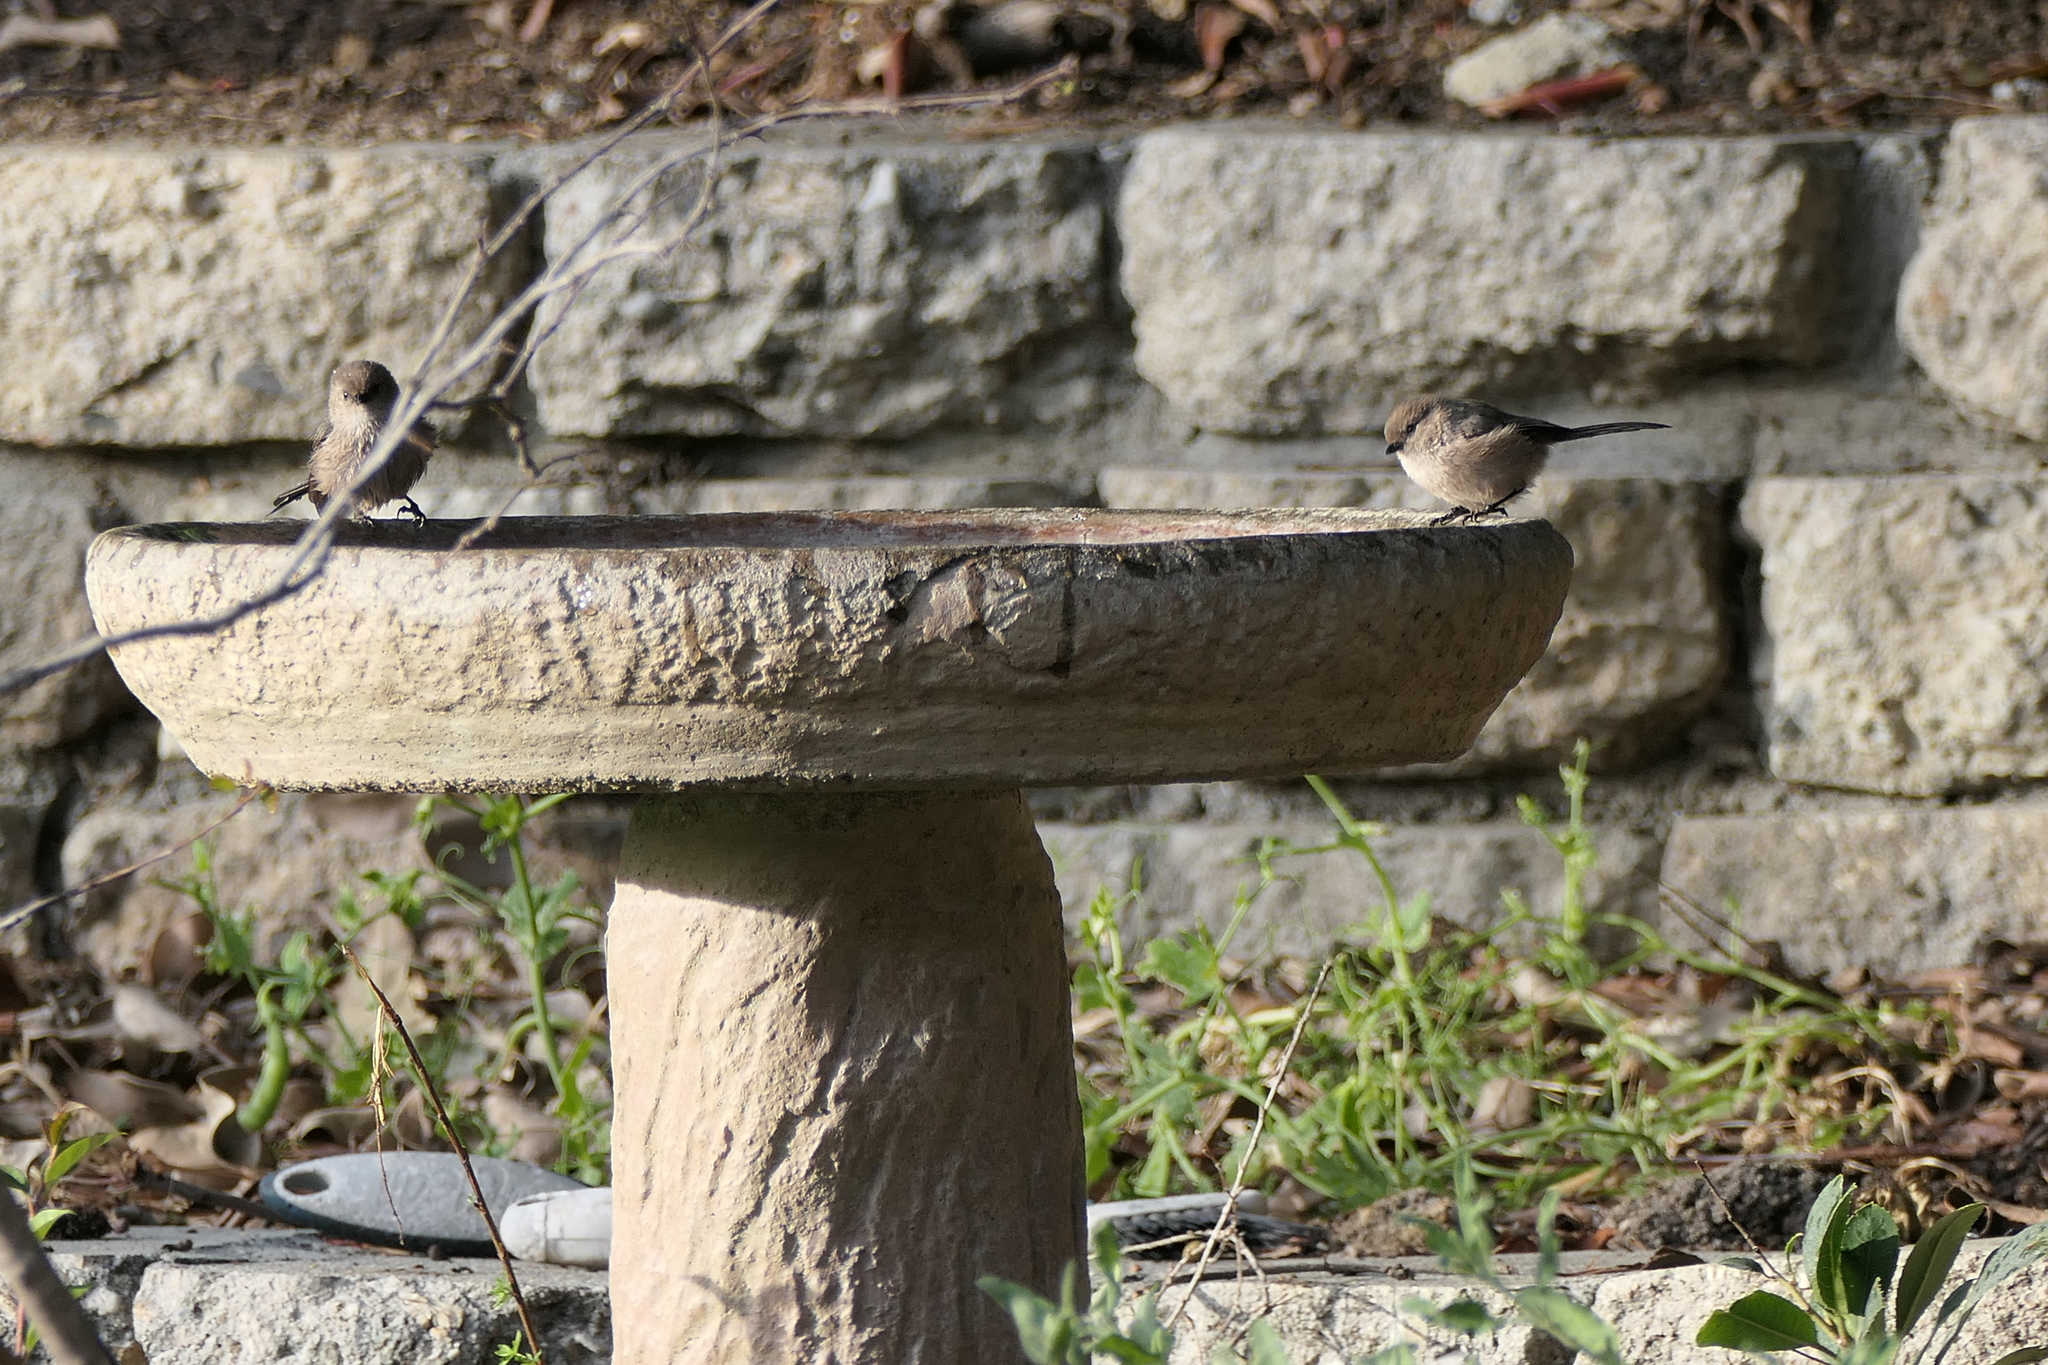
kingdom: Animalia
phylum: Chordata
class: Aves
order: Passeriformes
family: Aegithalidae
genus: Psaltriparus
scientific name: Psaltriparus minimus
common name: American bushtit
